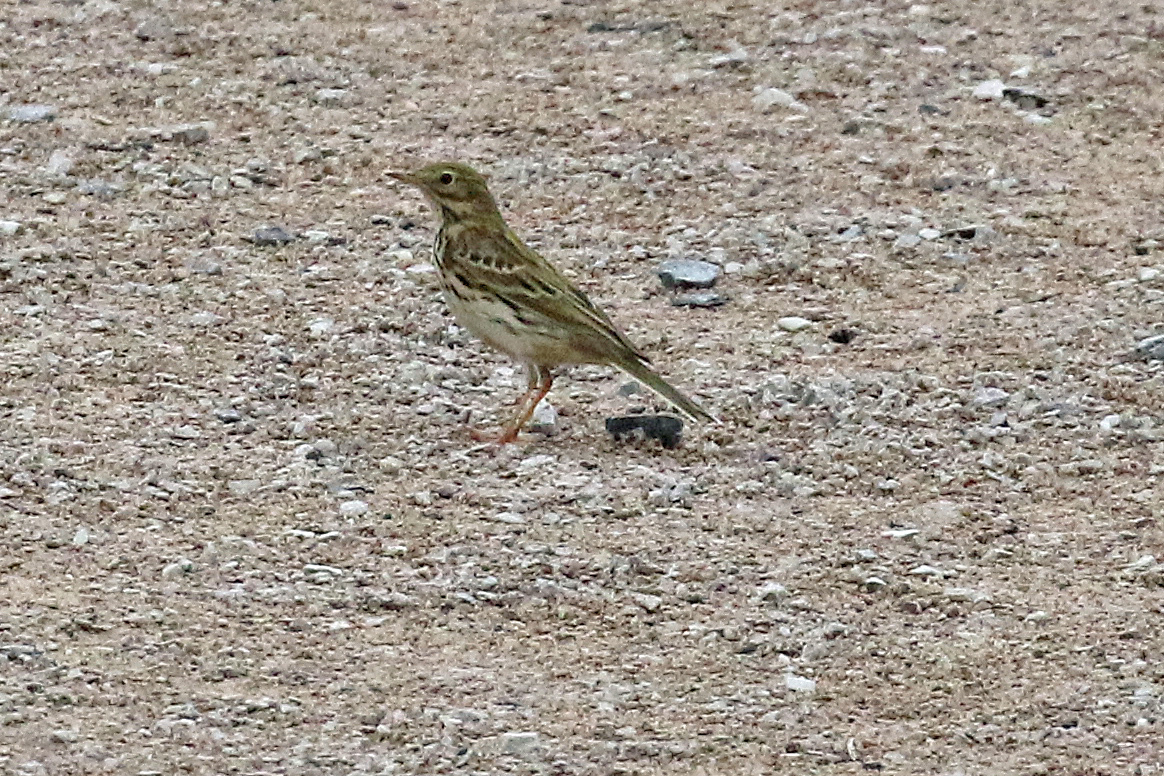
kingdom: Animalia
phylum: Chordata
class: Aves
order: Passeriformes
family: Motacillidae
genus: Anthus
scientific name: Anthus pratensis
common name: Meadow pipit
